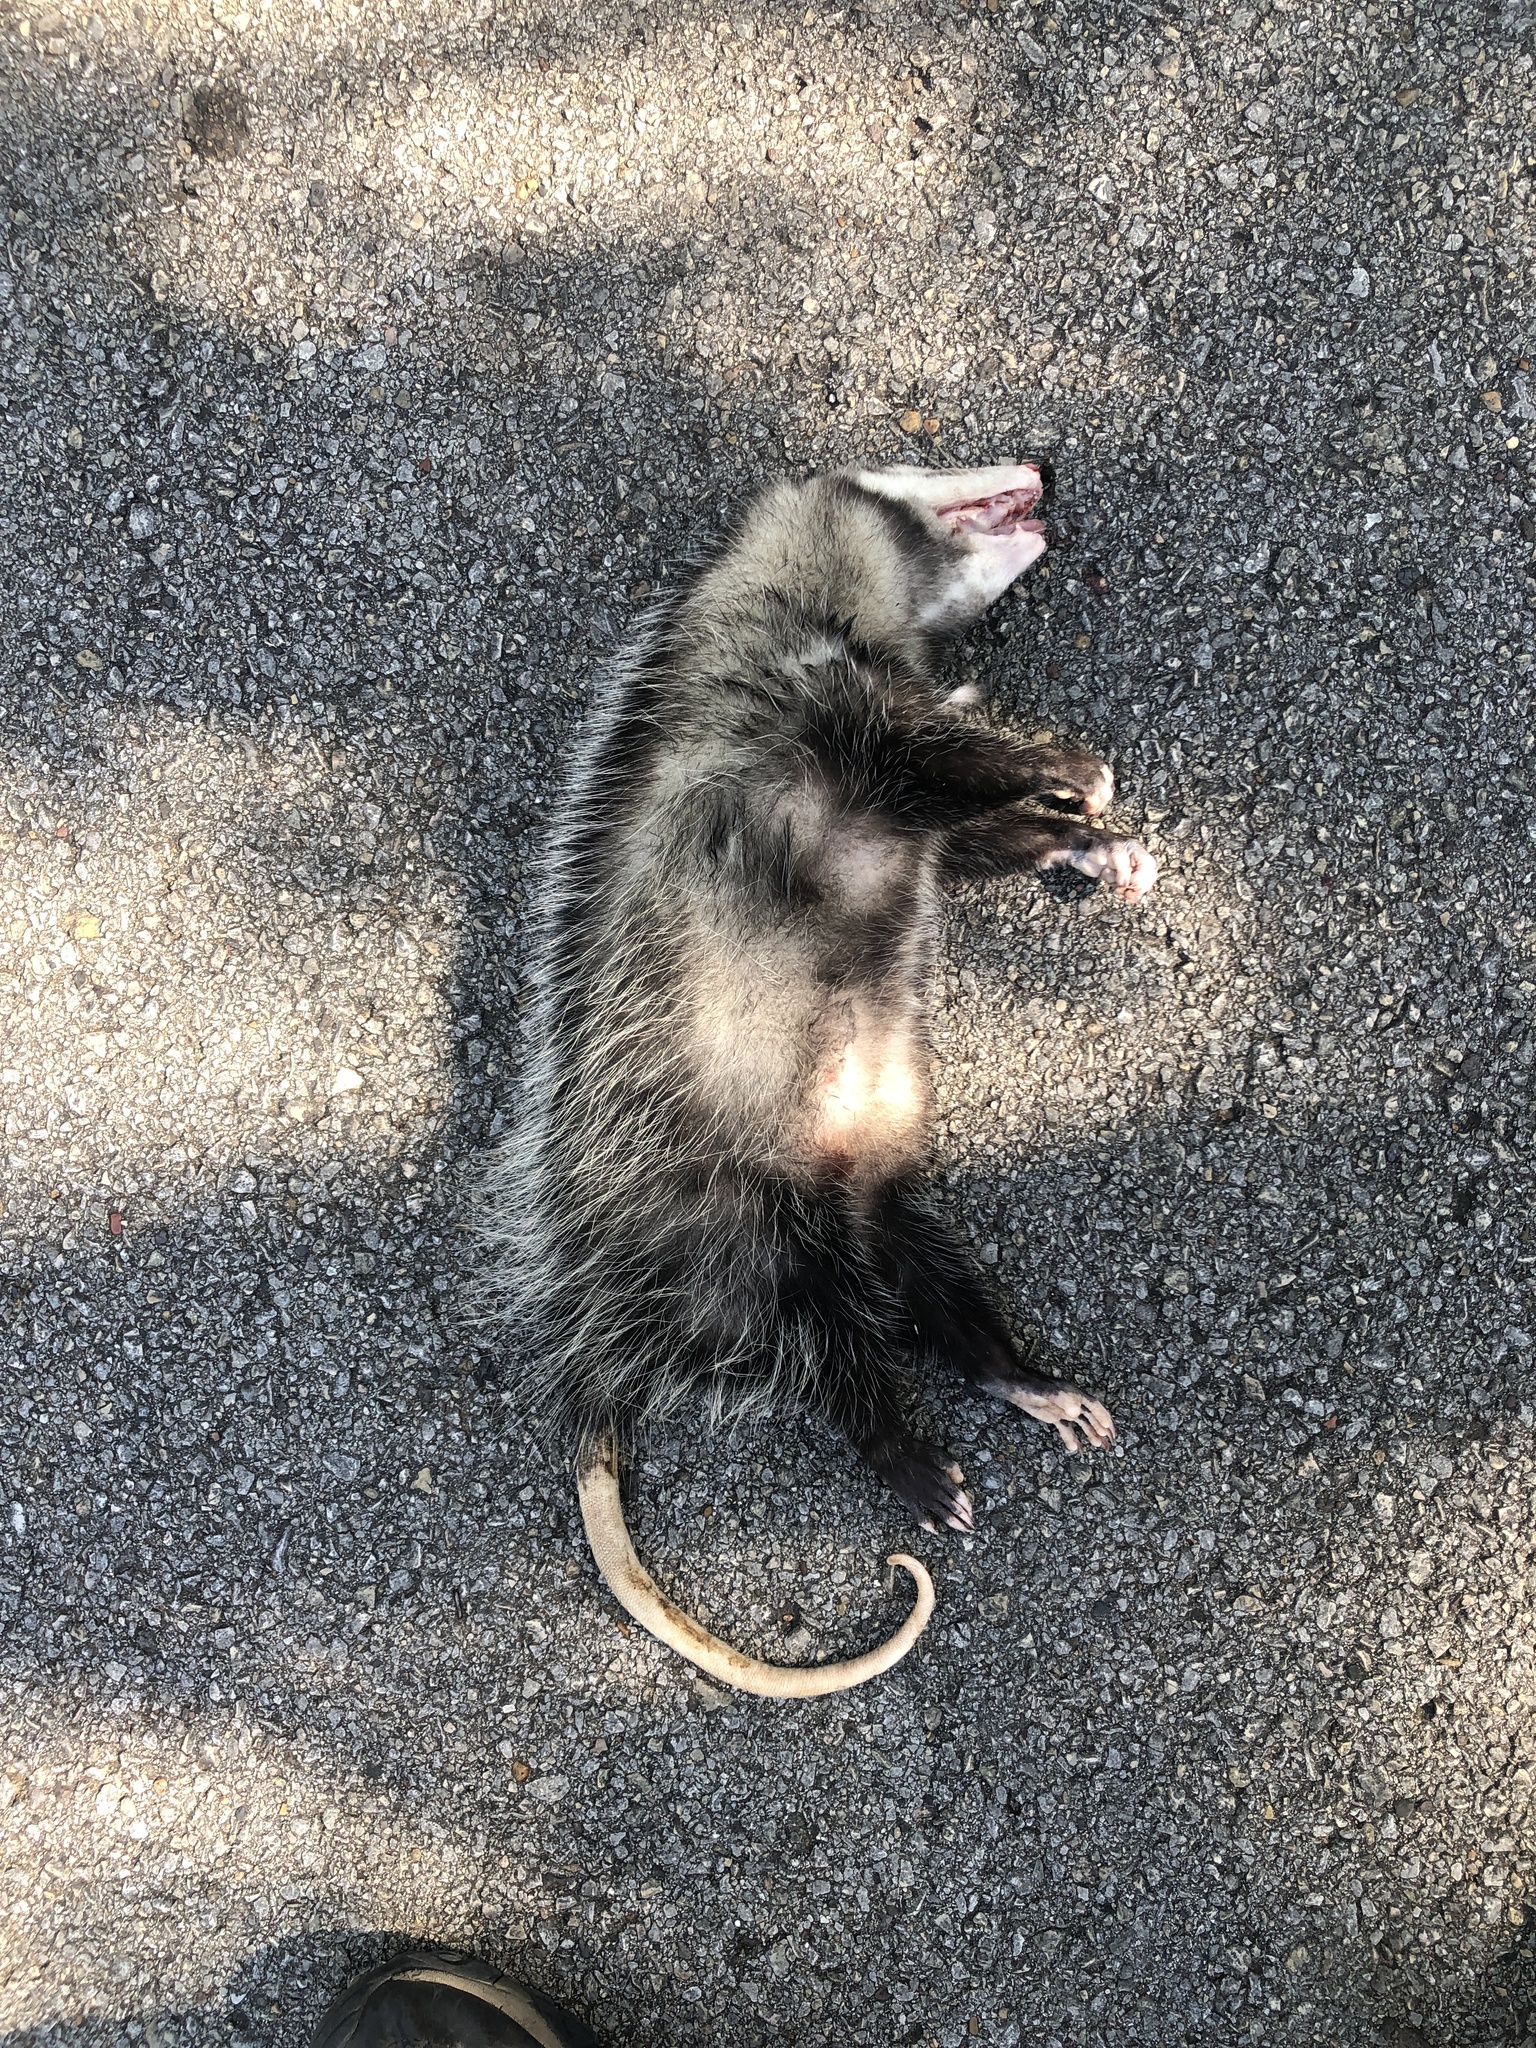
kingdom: Animalia
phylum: Chordata
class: Mammalia
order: Didelphimorphia
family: Didelphidae
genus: Didelphis
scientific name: Didelphis virginiana
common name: Virginia opossum
